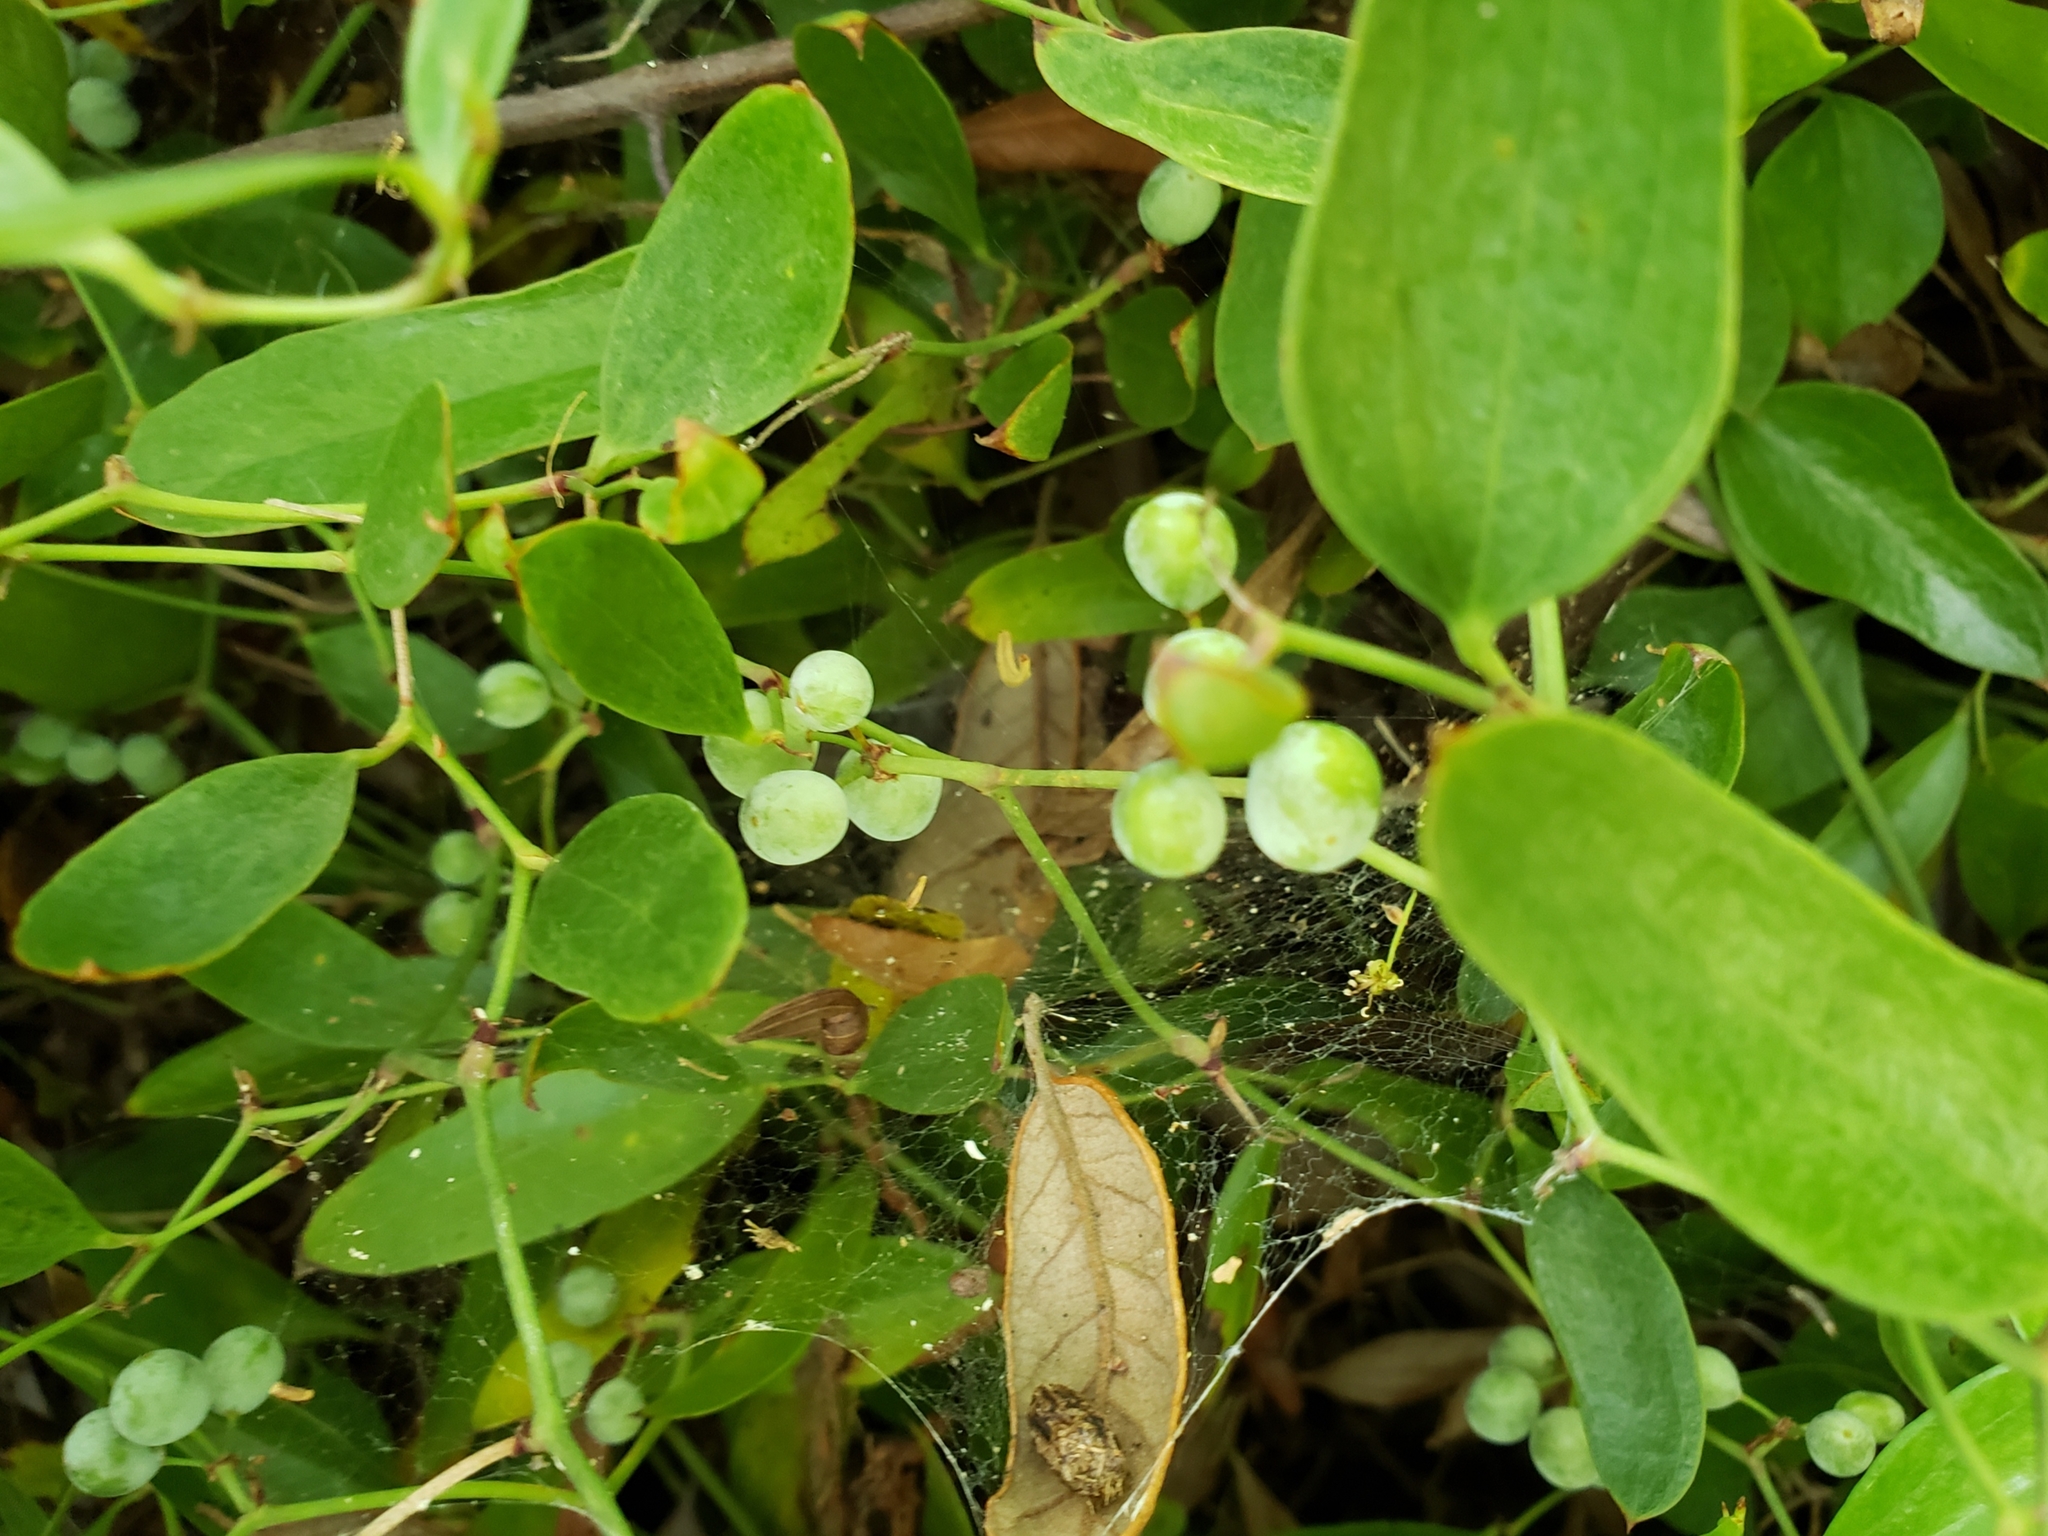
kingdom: Plantae
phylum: Tracheophyta
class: Liliopsida
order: Liliales
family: Smilacaceae
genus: Smilax
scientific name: Smilax auriculata
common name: Wild bamboo
